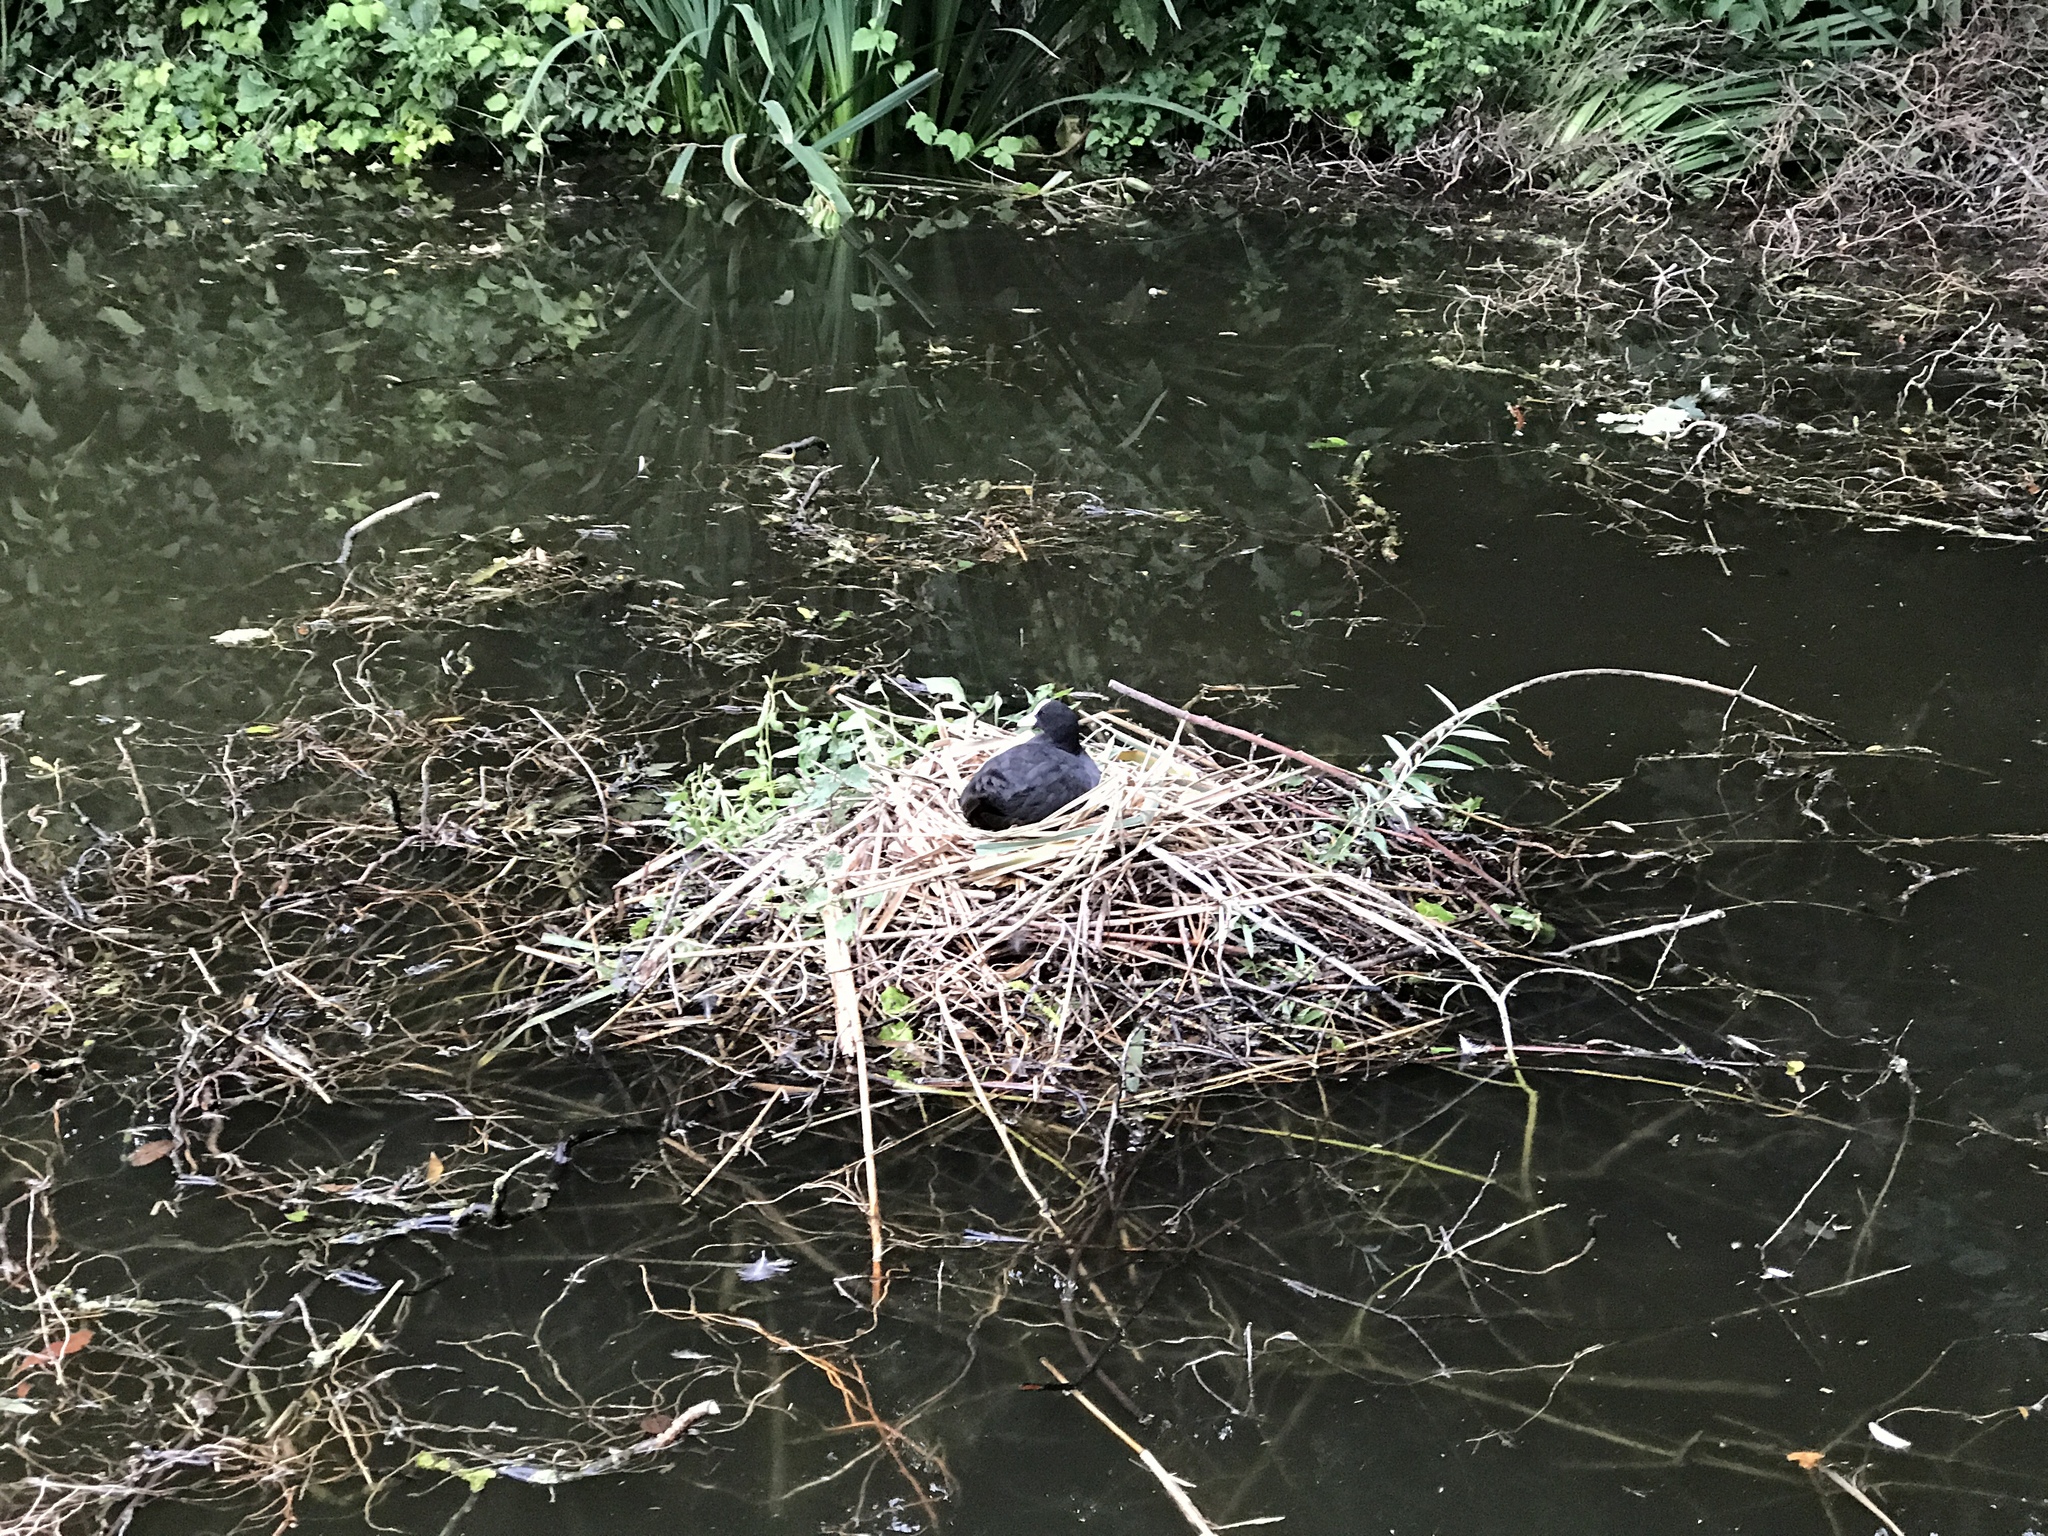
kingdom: Animalia
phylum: Chordata
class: Aves
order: Gruiformes
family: Rallidae
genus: Fulica
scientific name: Fulica atra
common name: Eurasian coot
